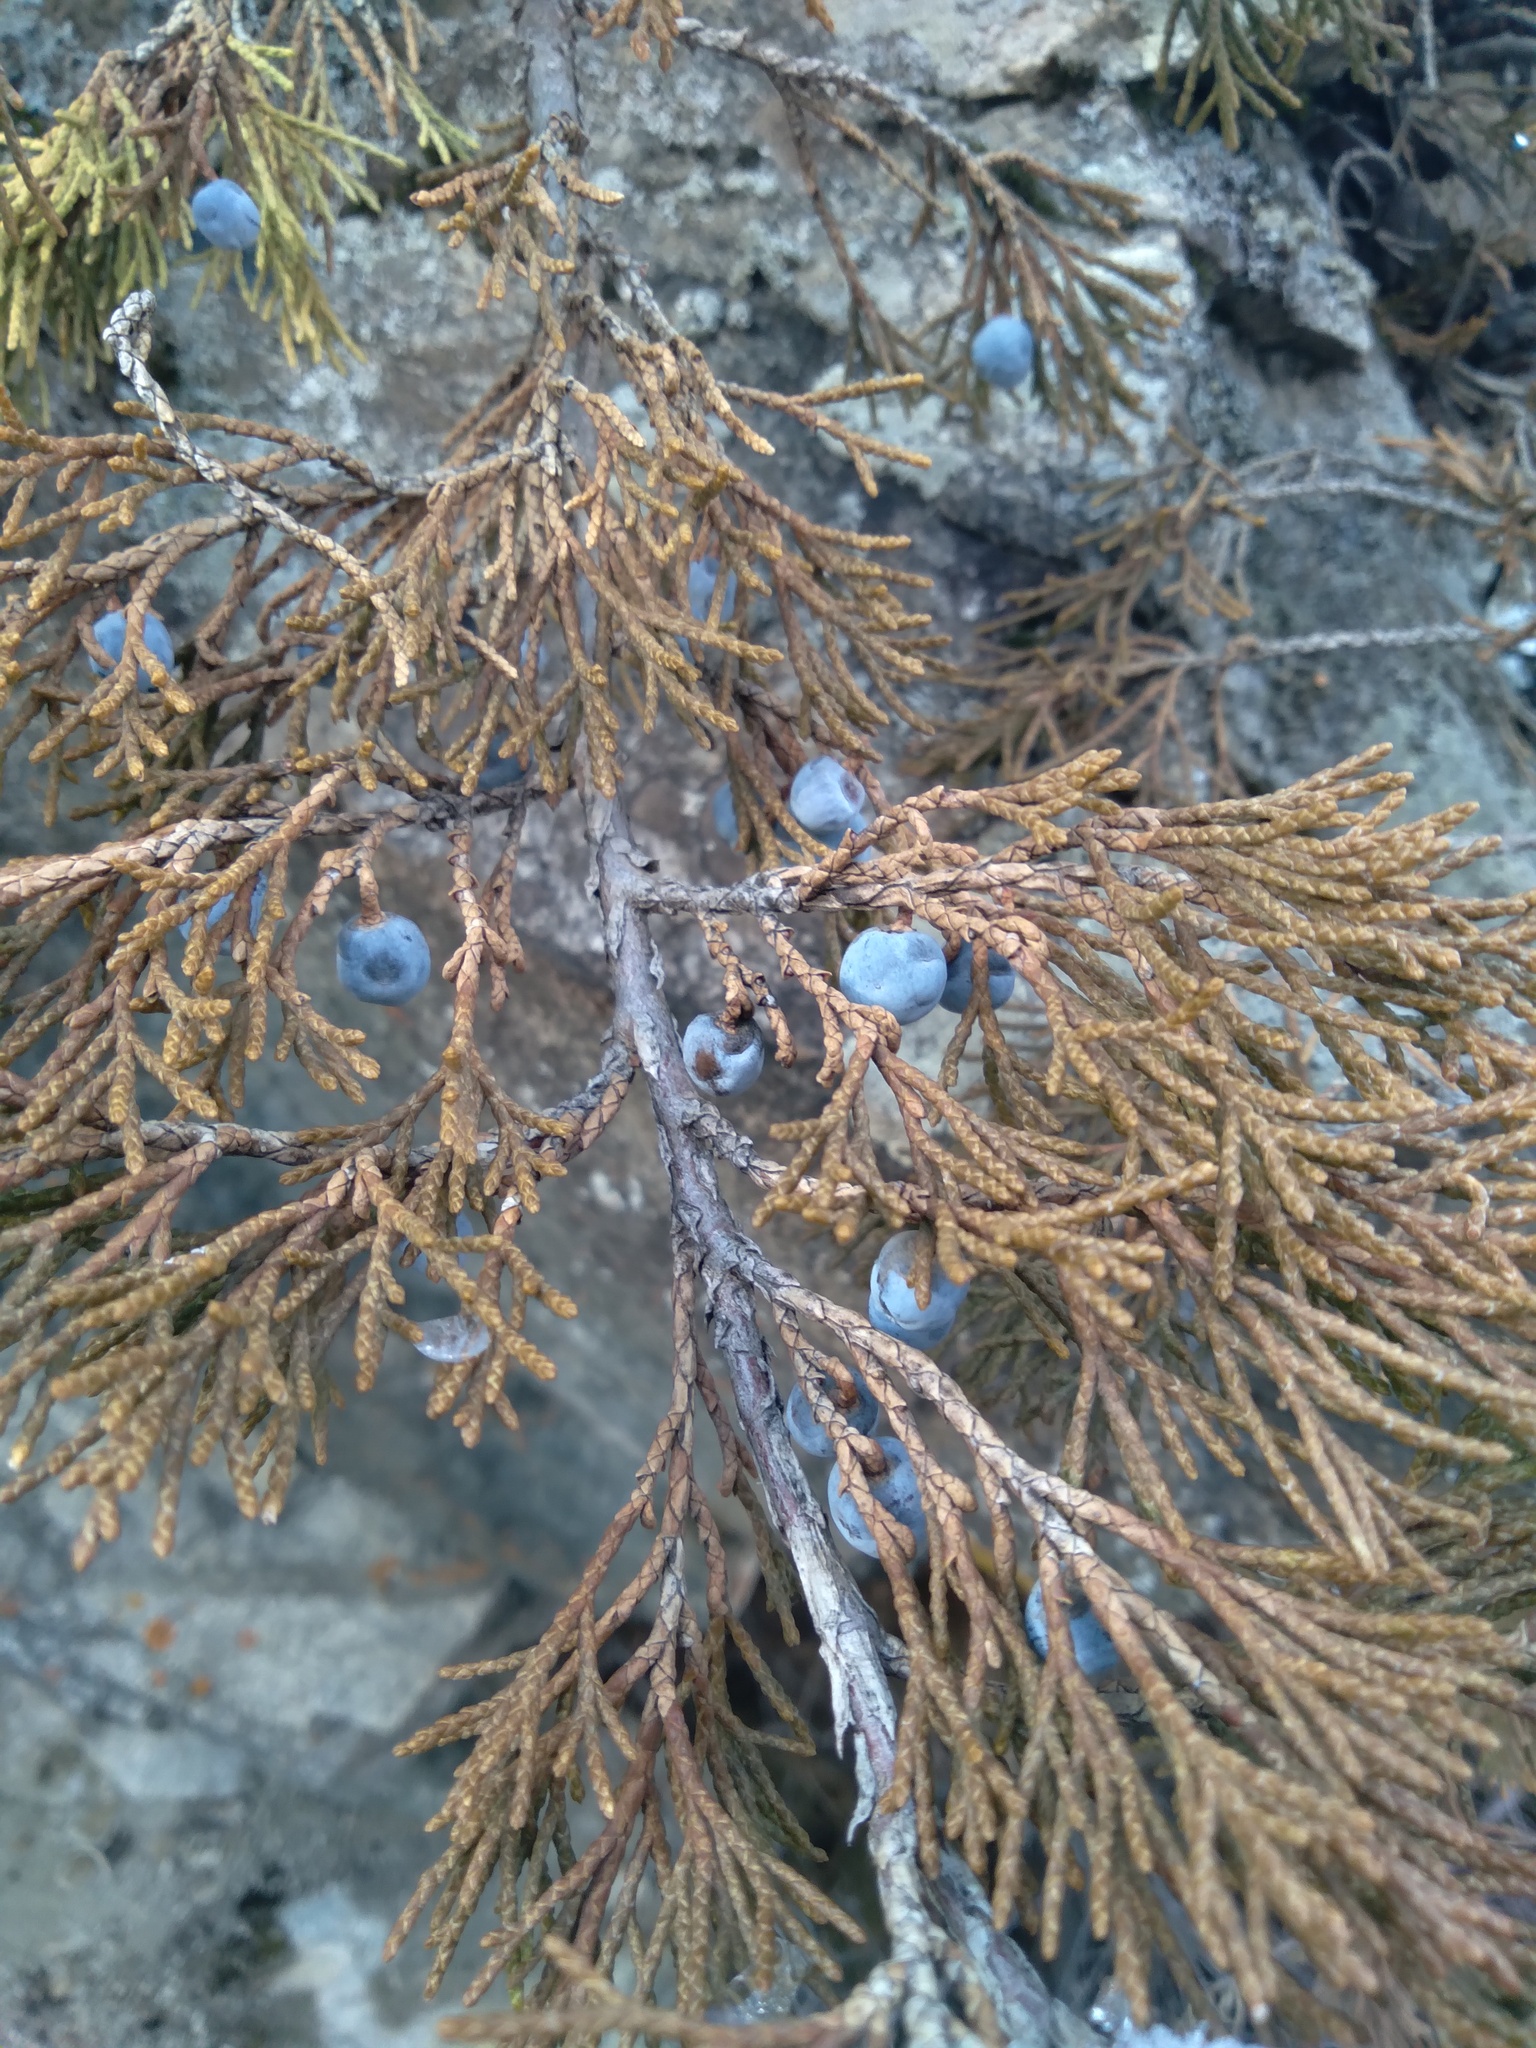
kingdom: Plantae
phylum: Tracheophyta
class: Pinopsida
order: Pinales
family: Cupressaceae
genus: Juniperus
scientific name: Juniperus sabina
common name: Savin
